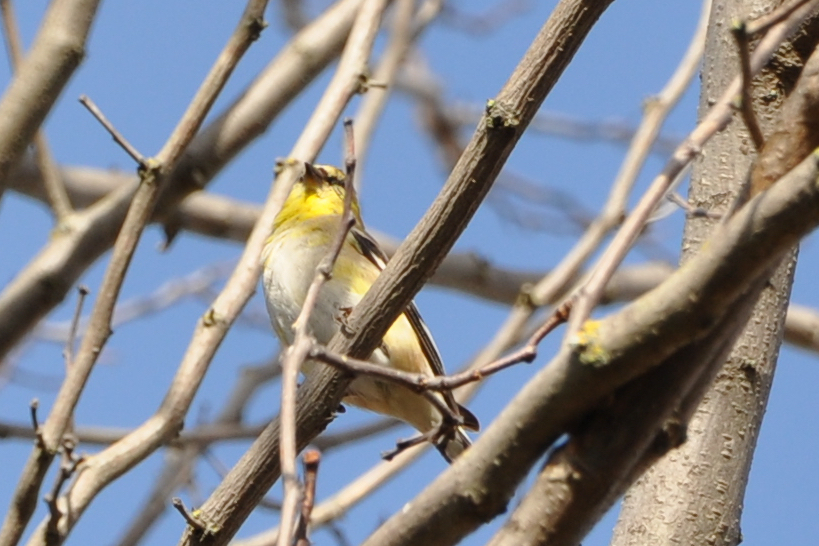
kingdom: Animalia
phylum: Chordata
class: Aves
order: Passeriformes
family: Fringillidae
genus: Spinus
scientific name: Spinus tristis
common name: American goldfinch
